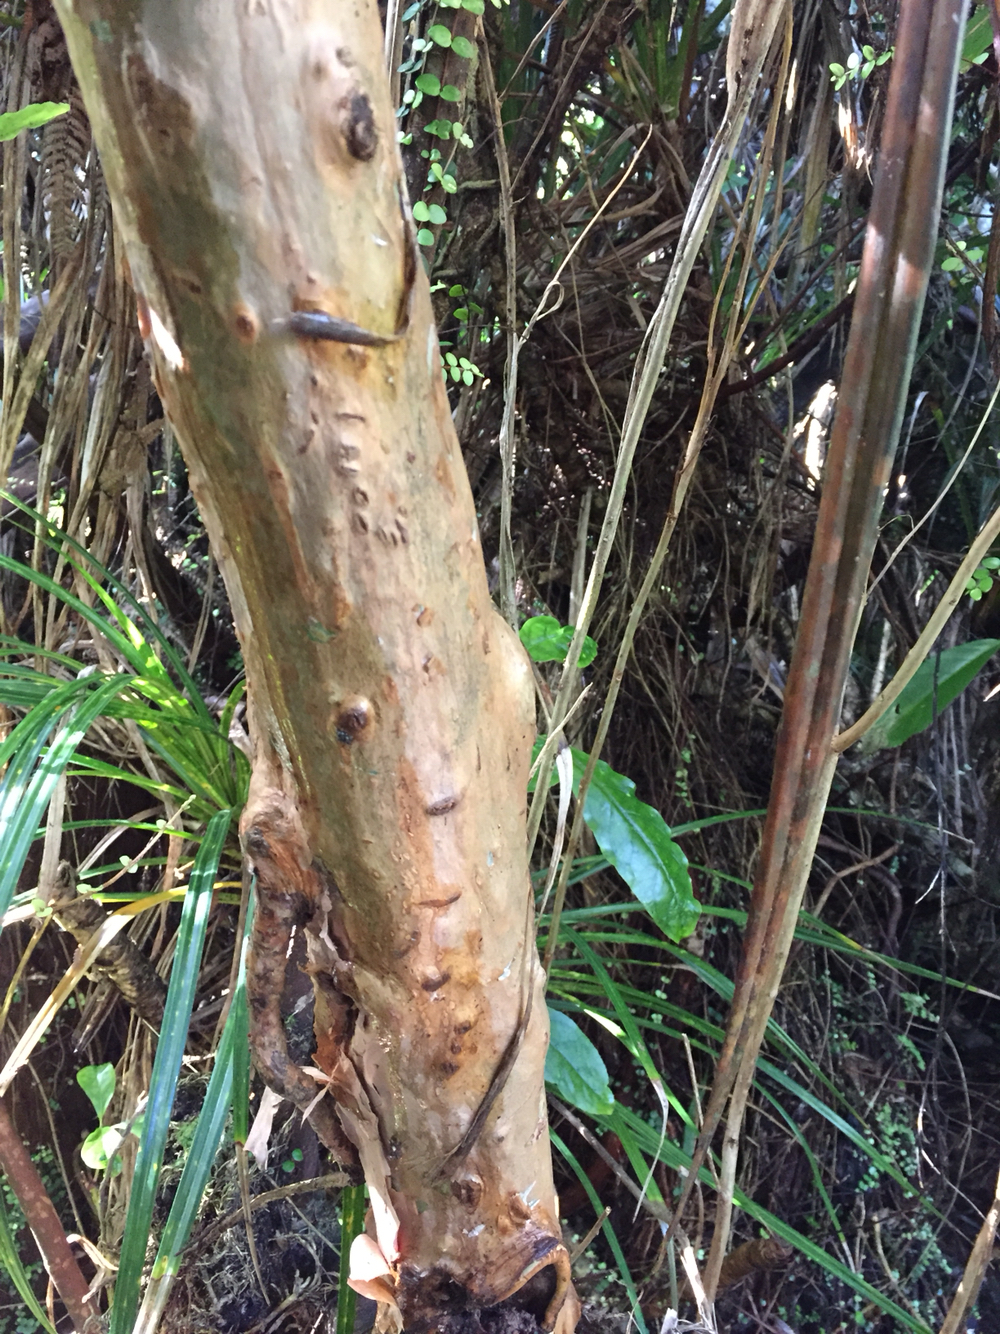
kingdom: Plantae
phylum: Tracheophyta
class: Magnoliopsida
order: Myrtales
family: Onagraceae
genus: Fuchsia
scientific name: Fuchsia excorticata
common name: Tree fuchsia
